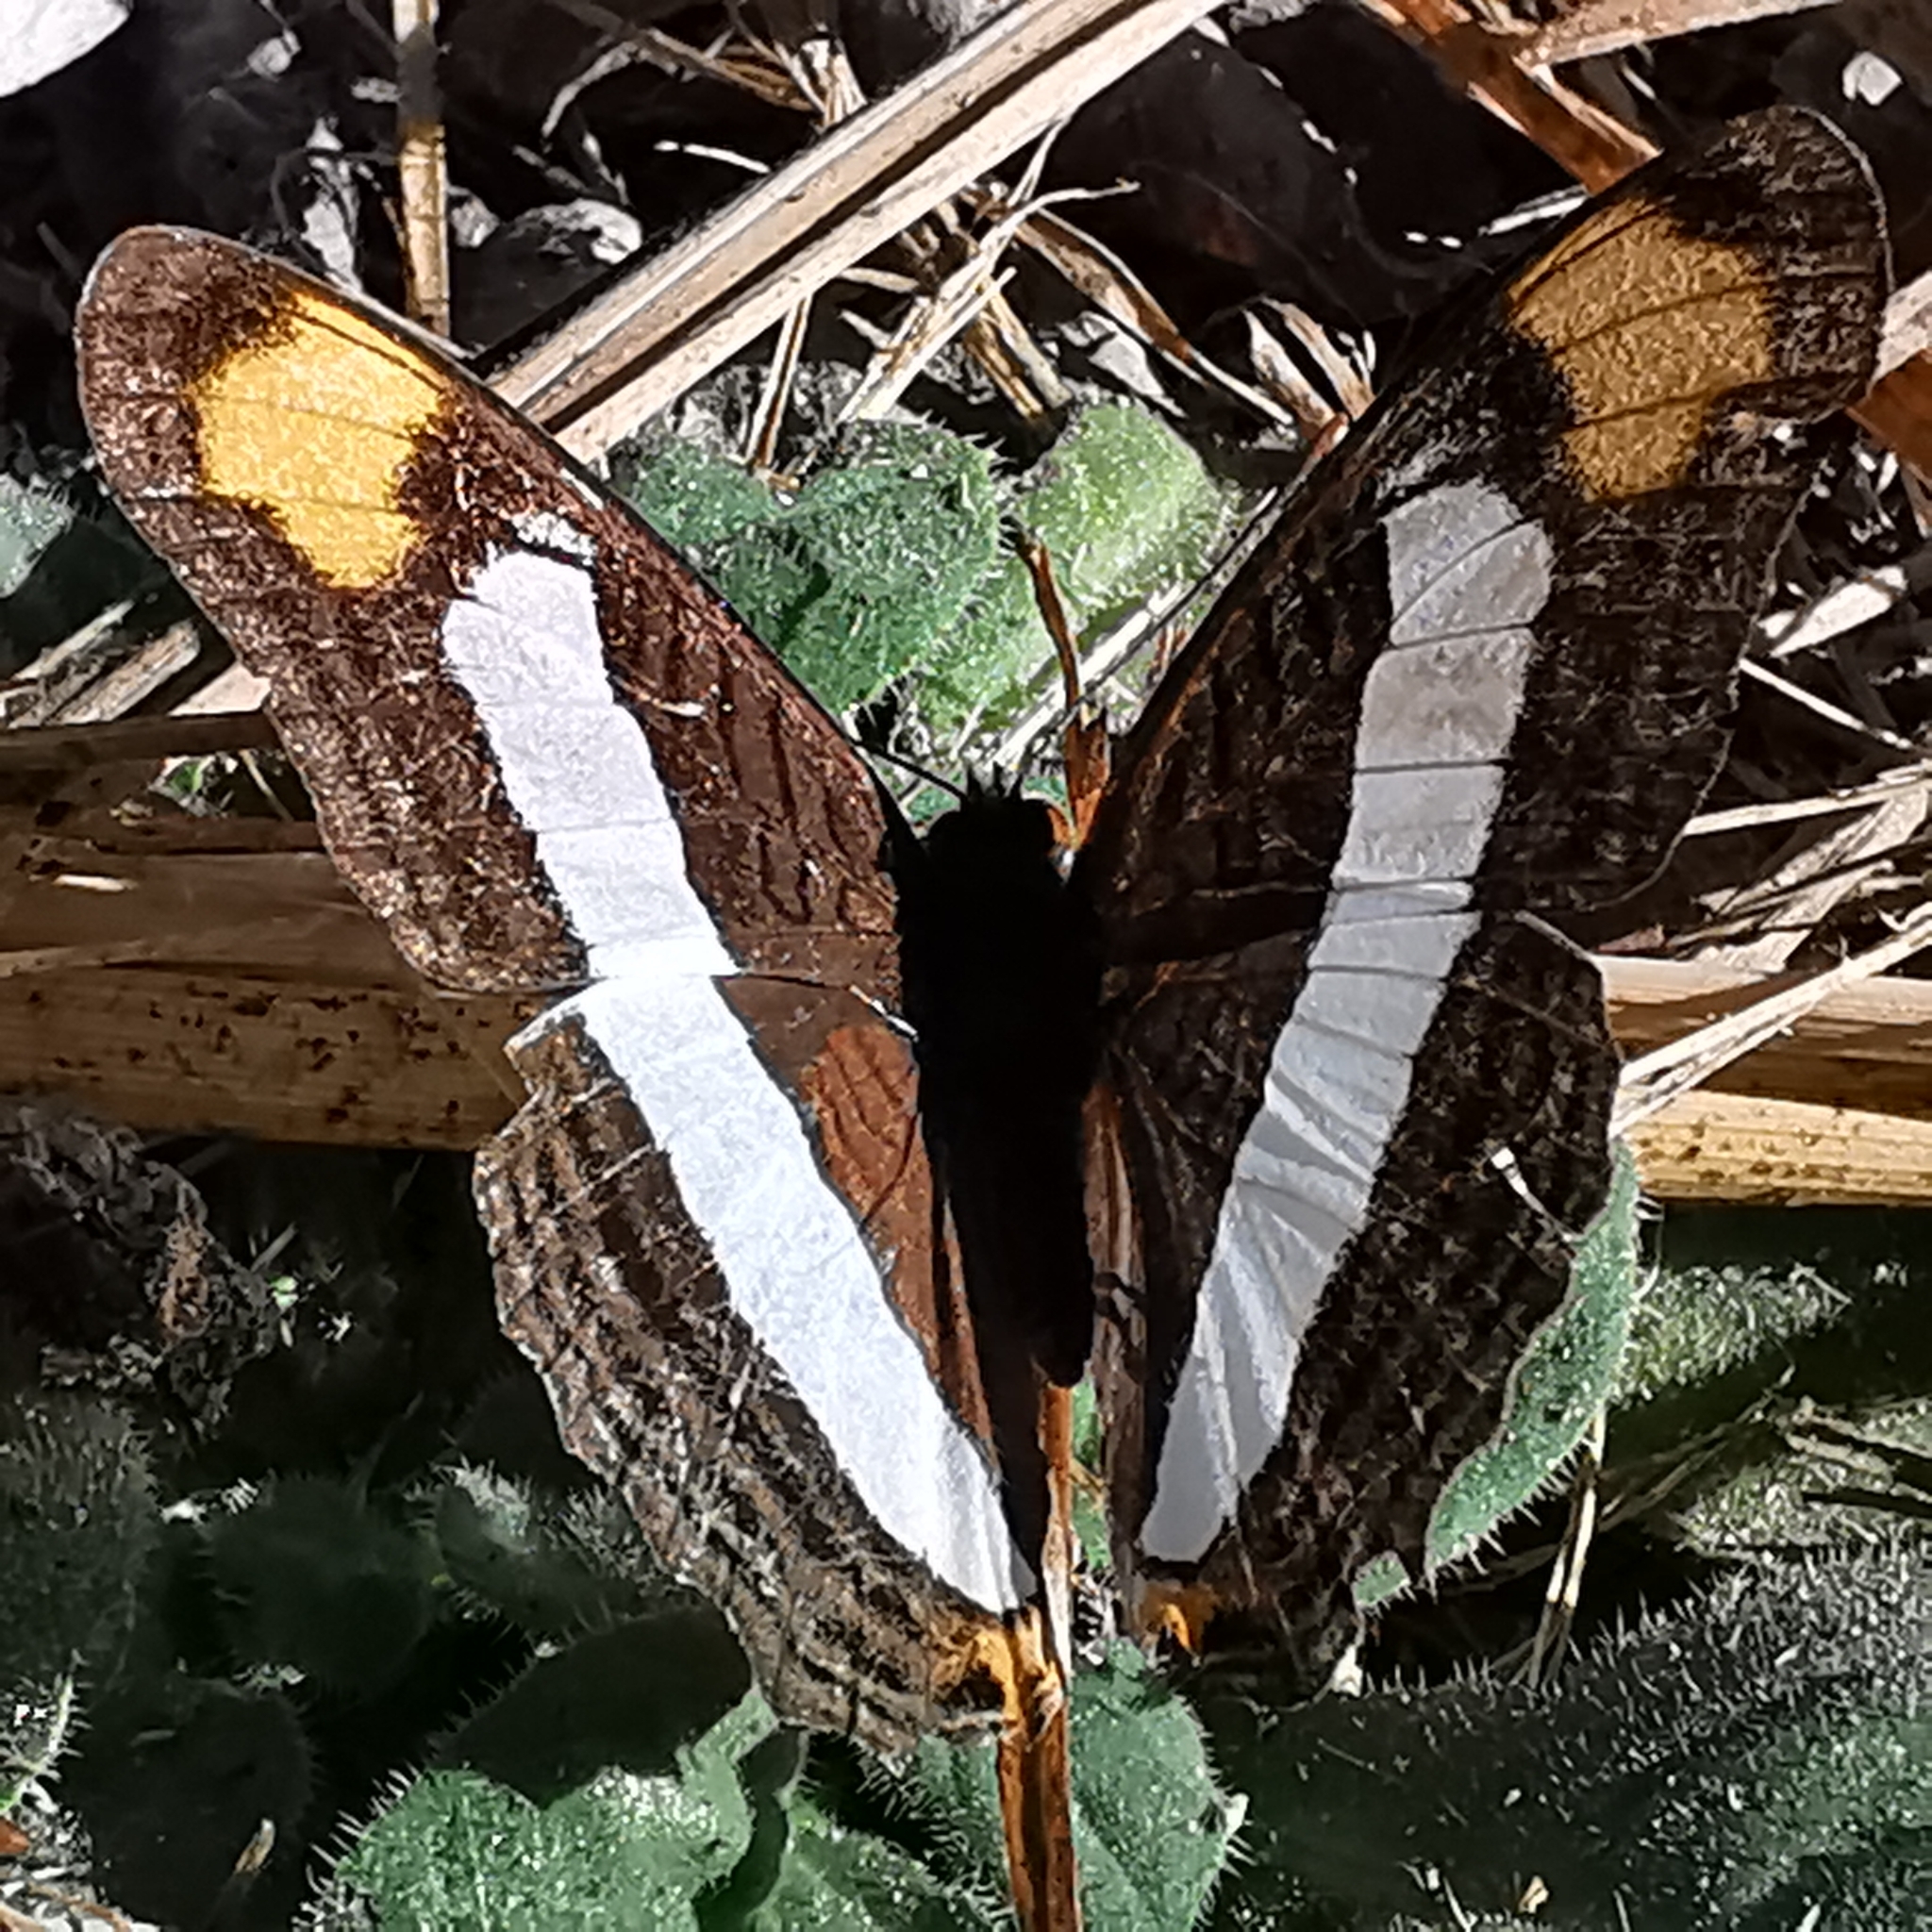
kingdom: Animalia
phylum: Arthropoda
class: Insecta
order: Lepidoptera
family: Nymphalidae
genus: Limenitis
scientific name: Limenitis Adelpha basiloides
